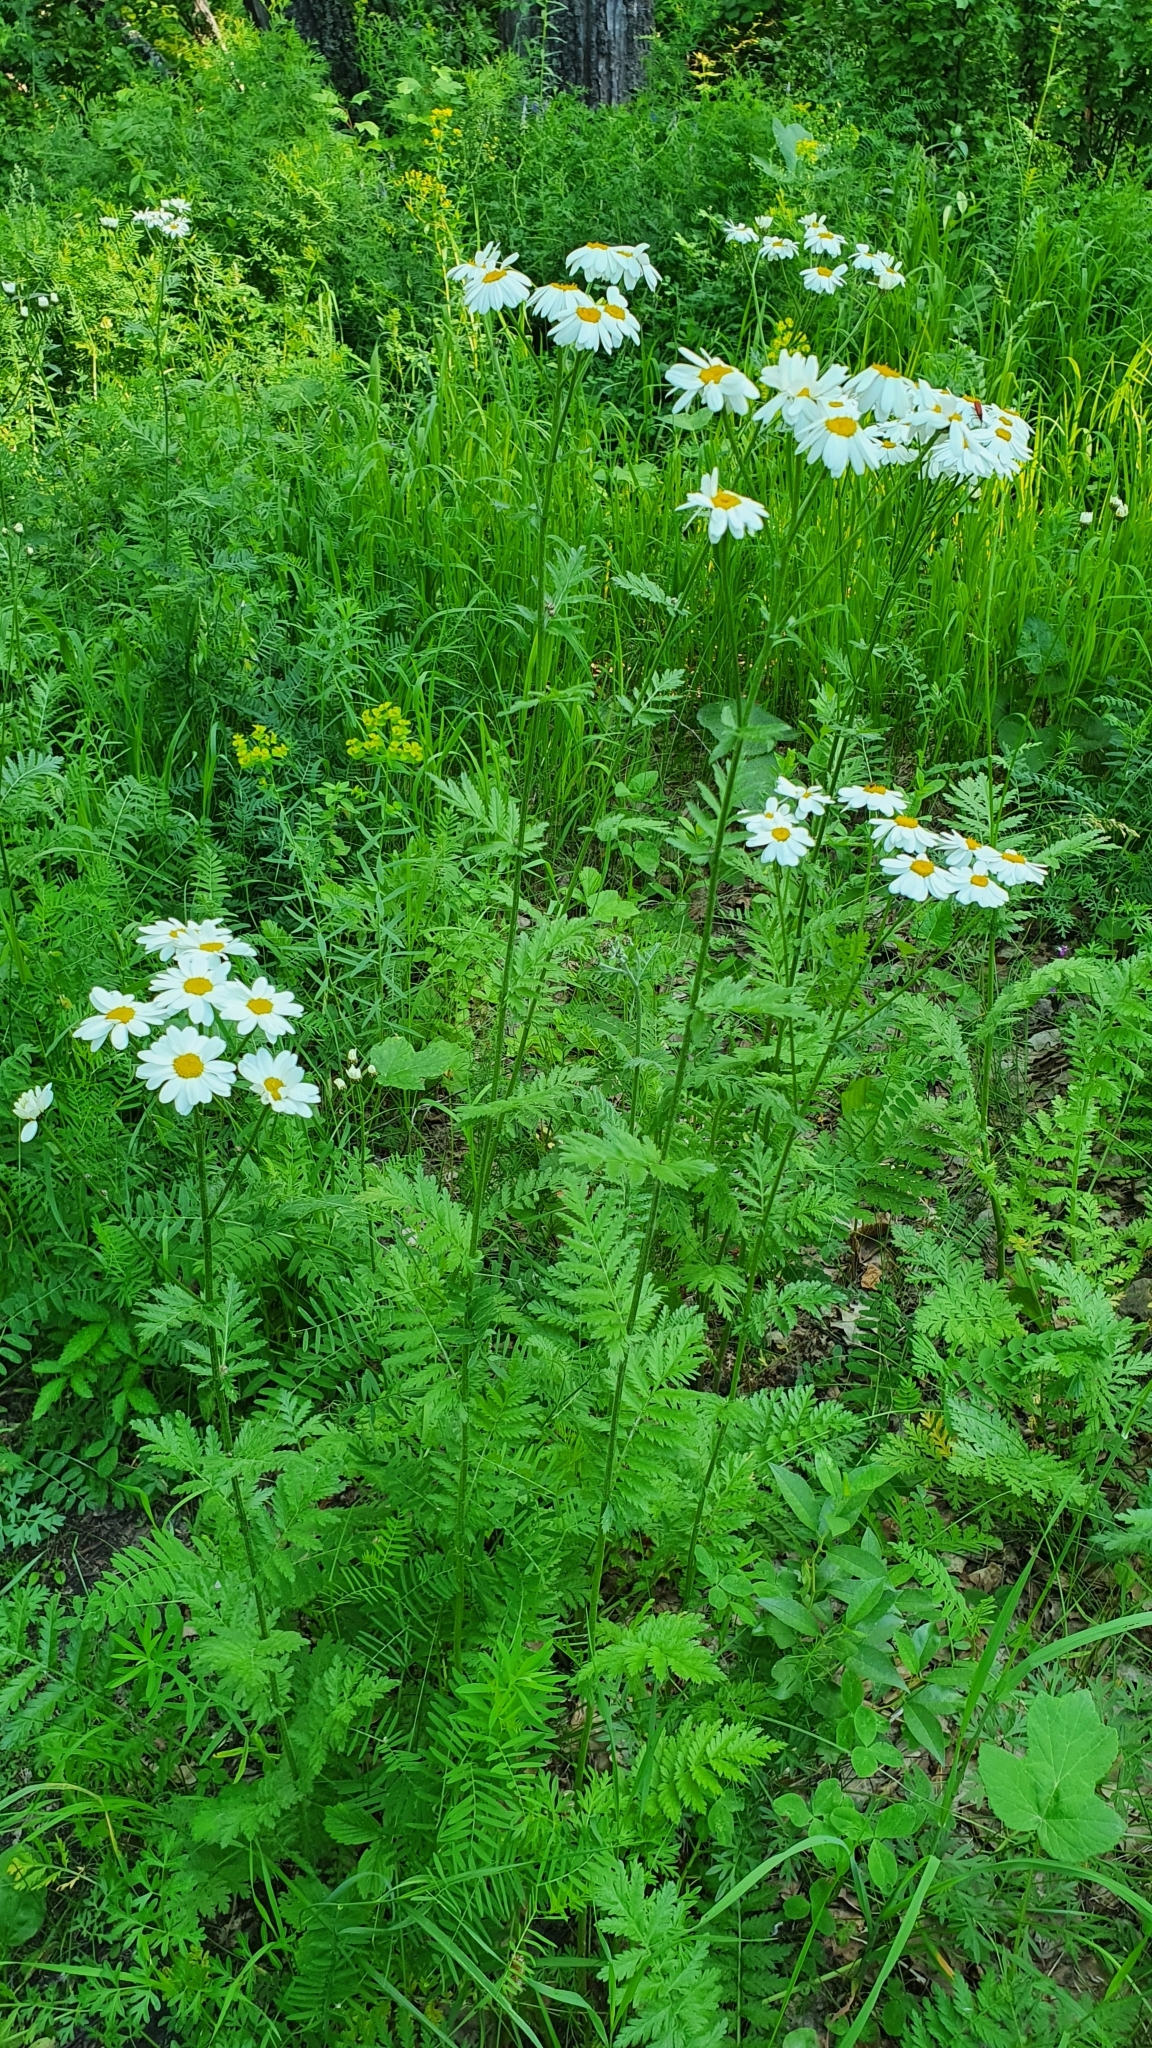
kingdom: Plantae
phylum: Tracheophyta
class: Magnoliopsida
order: Asterales
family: Asteraceae
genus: Tanacetum
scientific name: Tanacetum corymbosum
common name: Scentless feverfew
